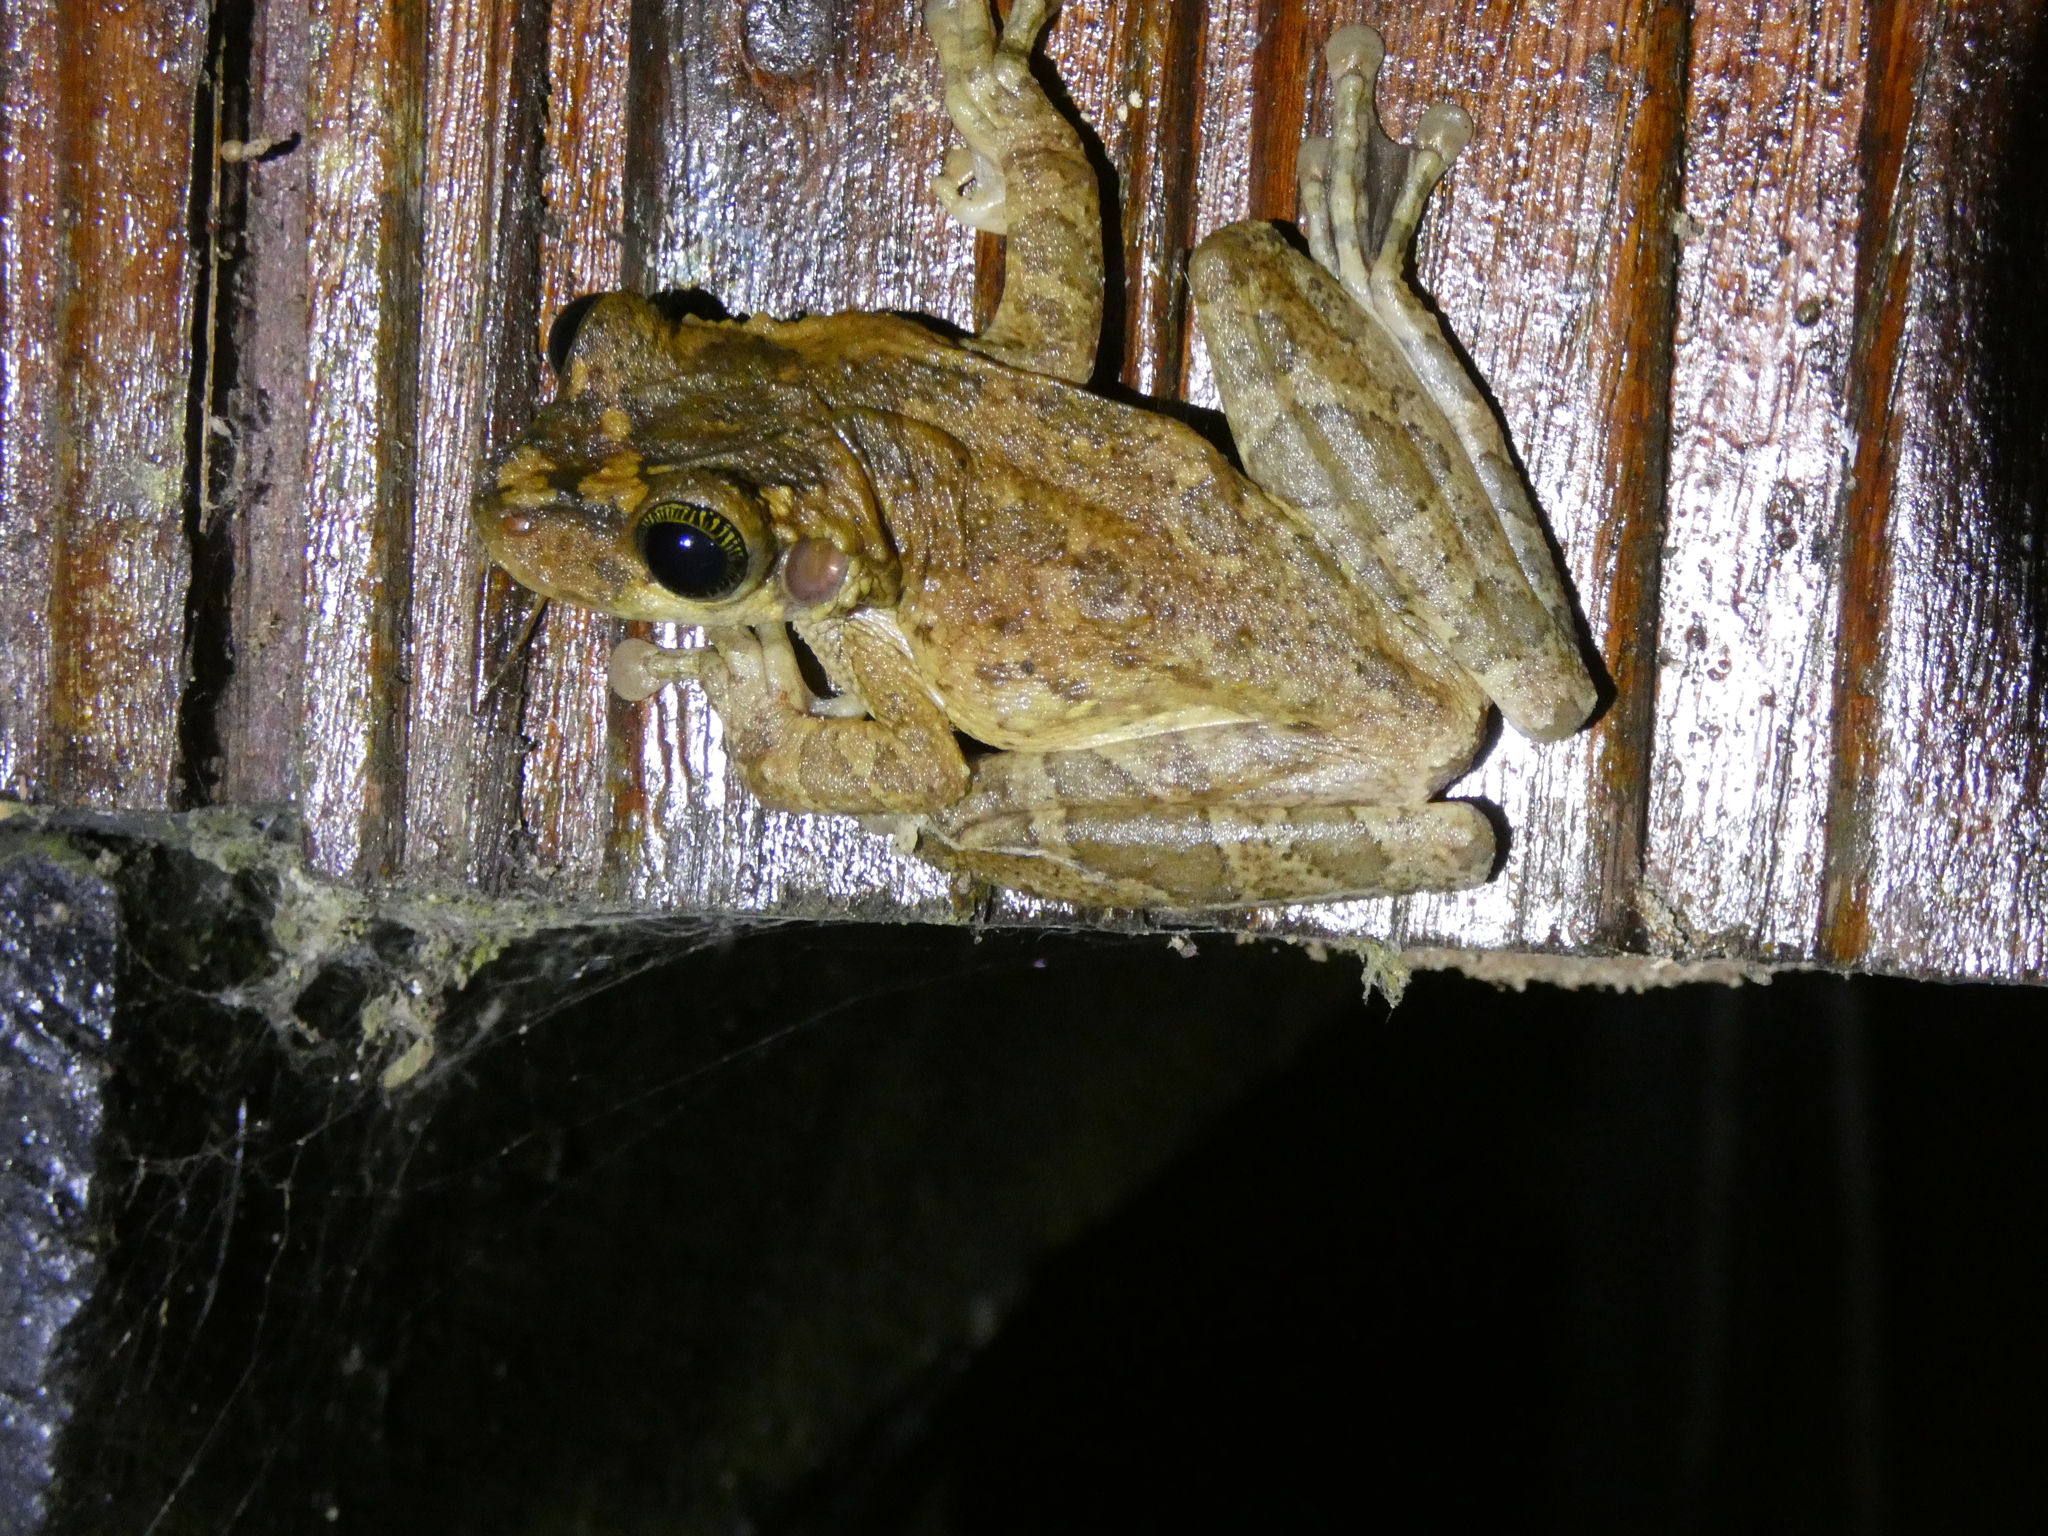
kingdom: Animalia
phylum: Chordata
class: Amphibia
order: Anura
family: Hylidae
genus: Osteocephalus
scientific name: Osteocephalus taurinus
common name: Manaus slender-legged treefrog
